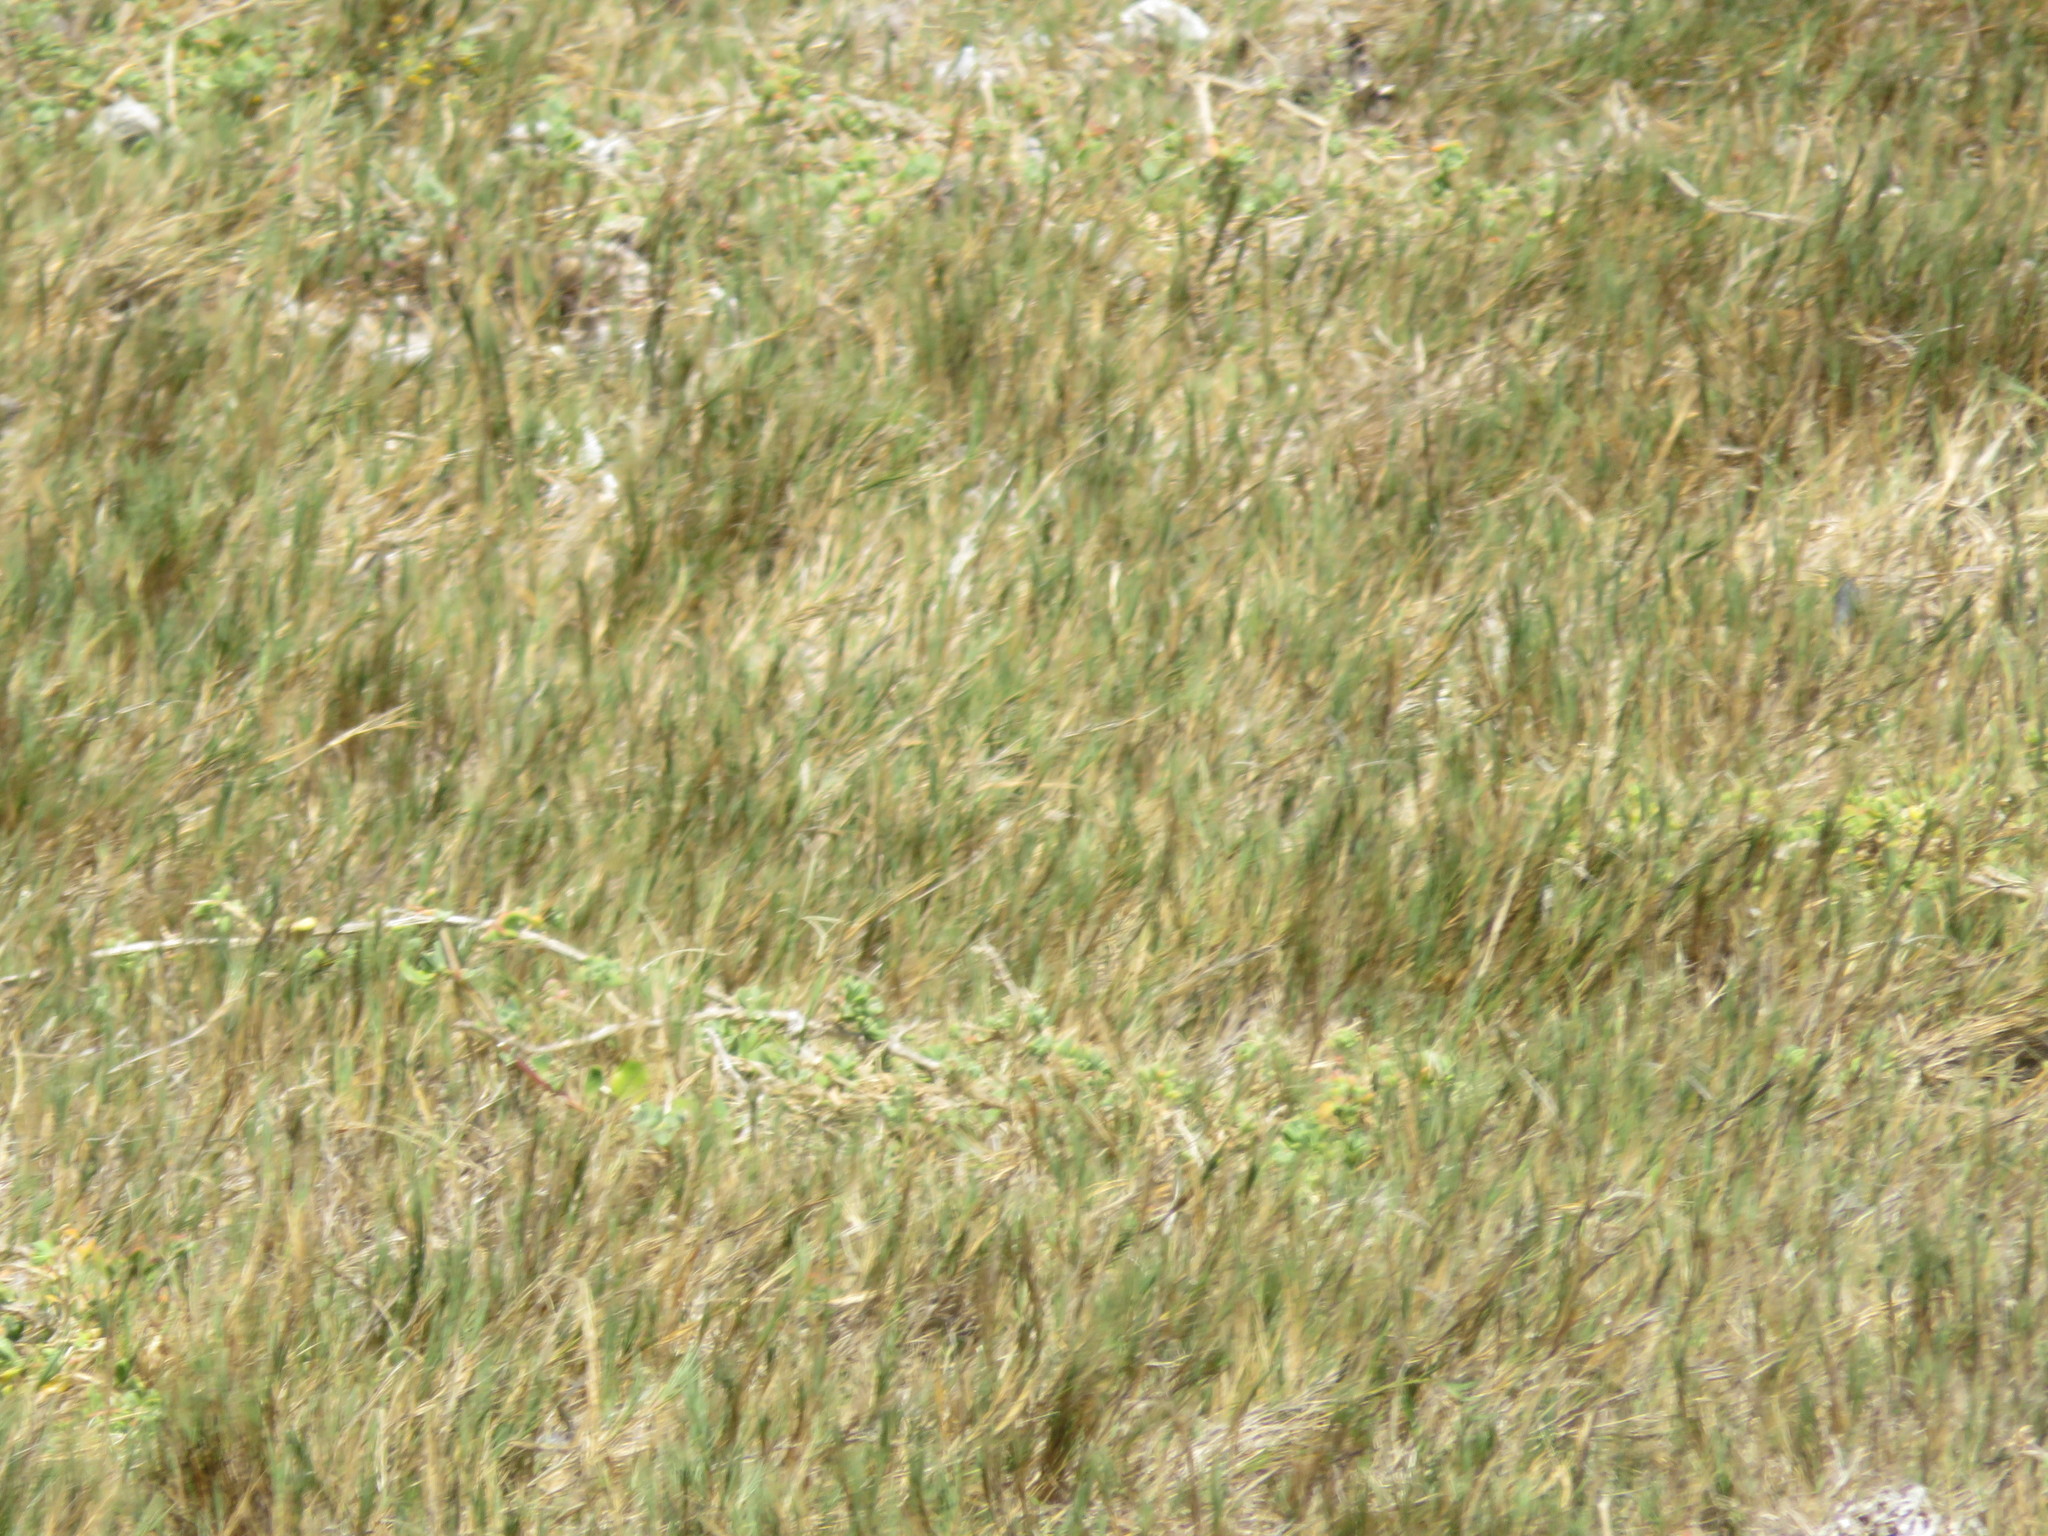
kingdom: Plantae
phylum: Tracheophyta
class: Liliopsida
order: Poales
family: Poaceae
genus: Sporobolus
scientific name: Sporobolus virginicus
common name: Beach dropseed
